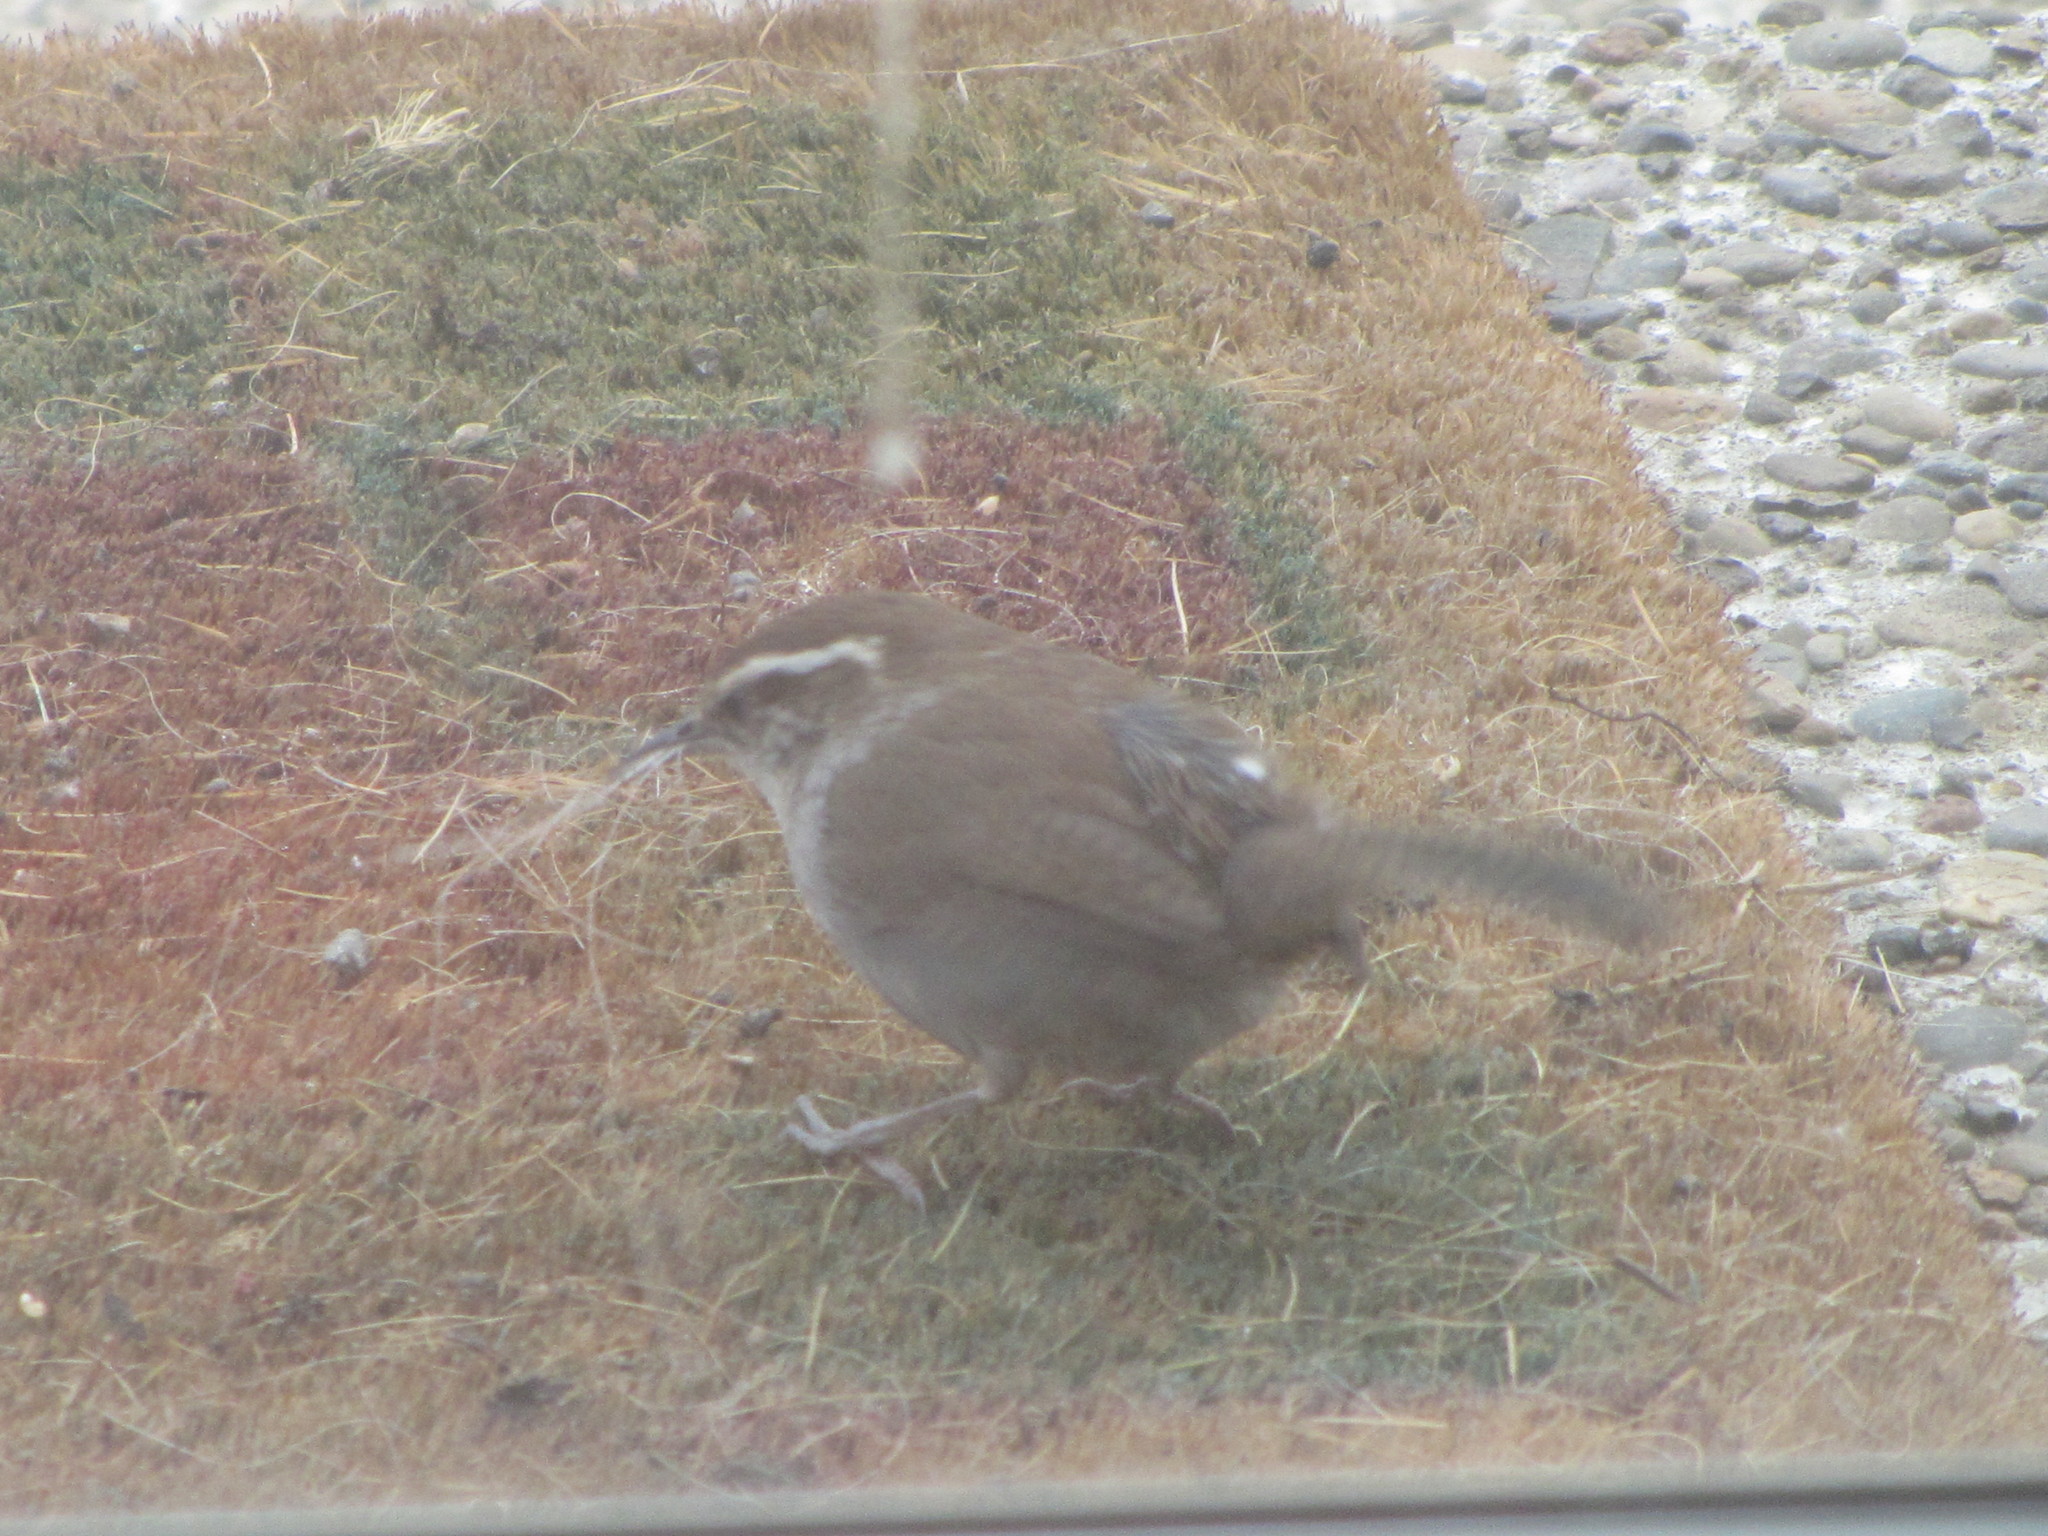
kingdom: Animalia
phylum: Chordata
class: Aves
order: Passeriformes
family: Troglodytidae
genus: Thryomanes
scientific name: Thryomanes bewickii
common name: Bewick's wren
